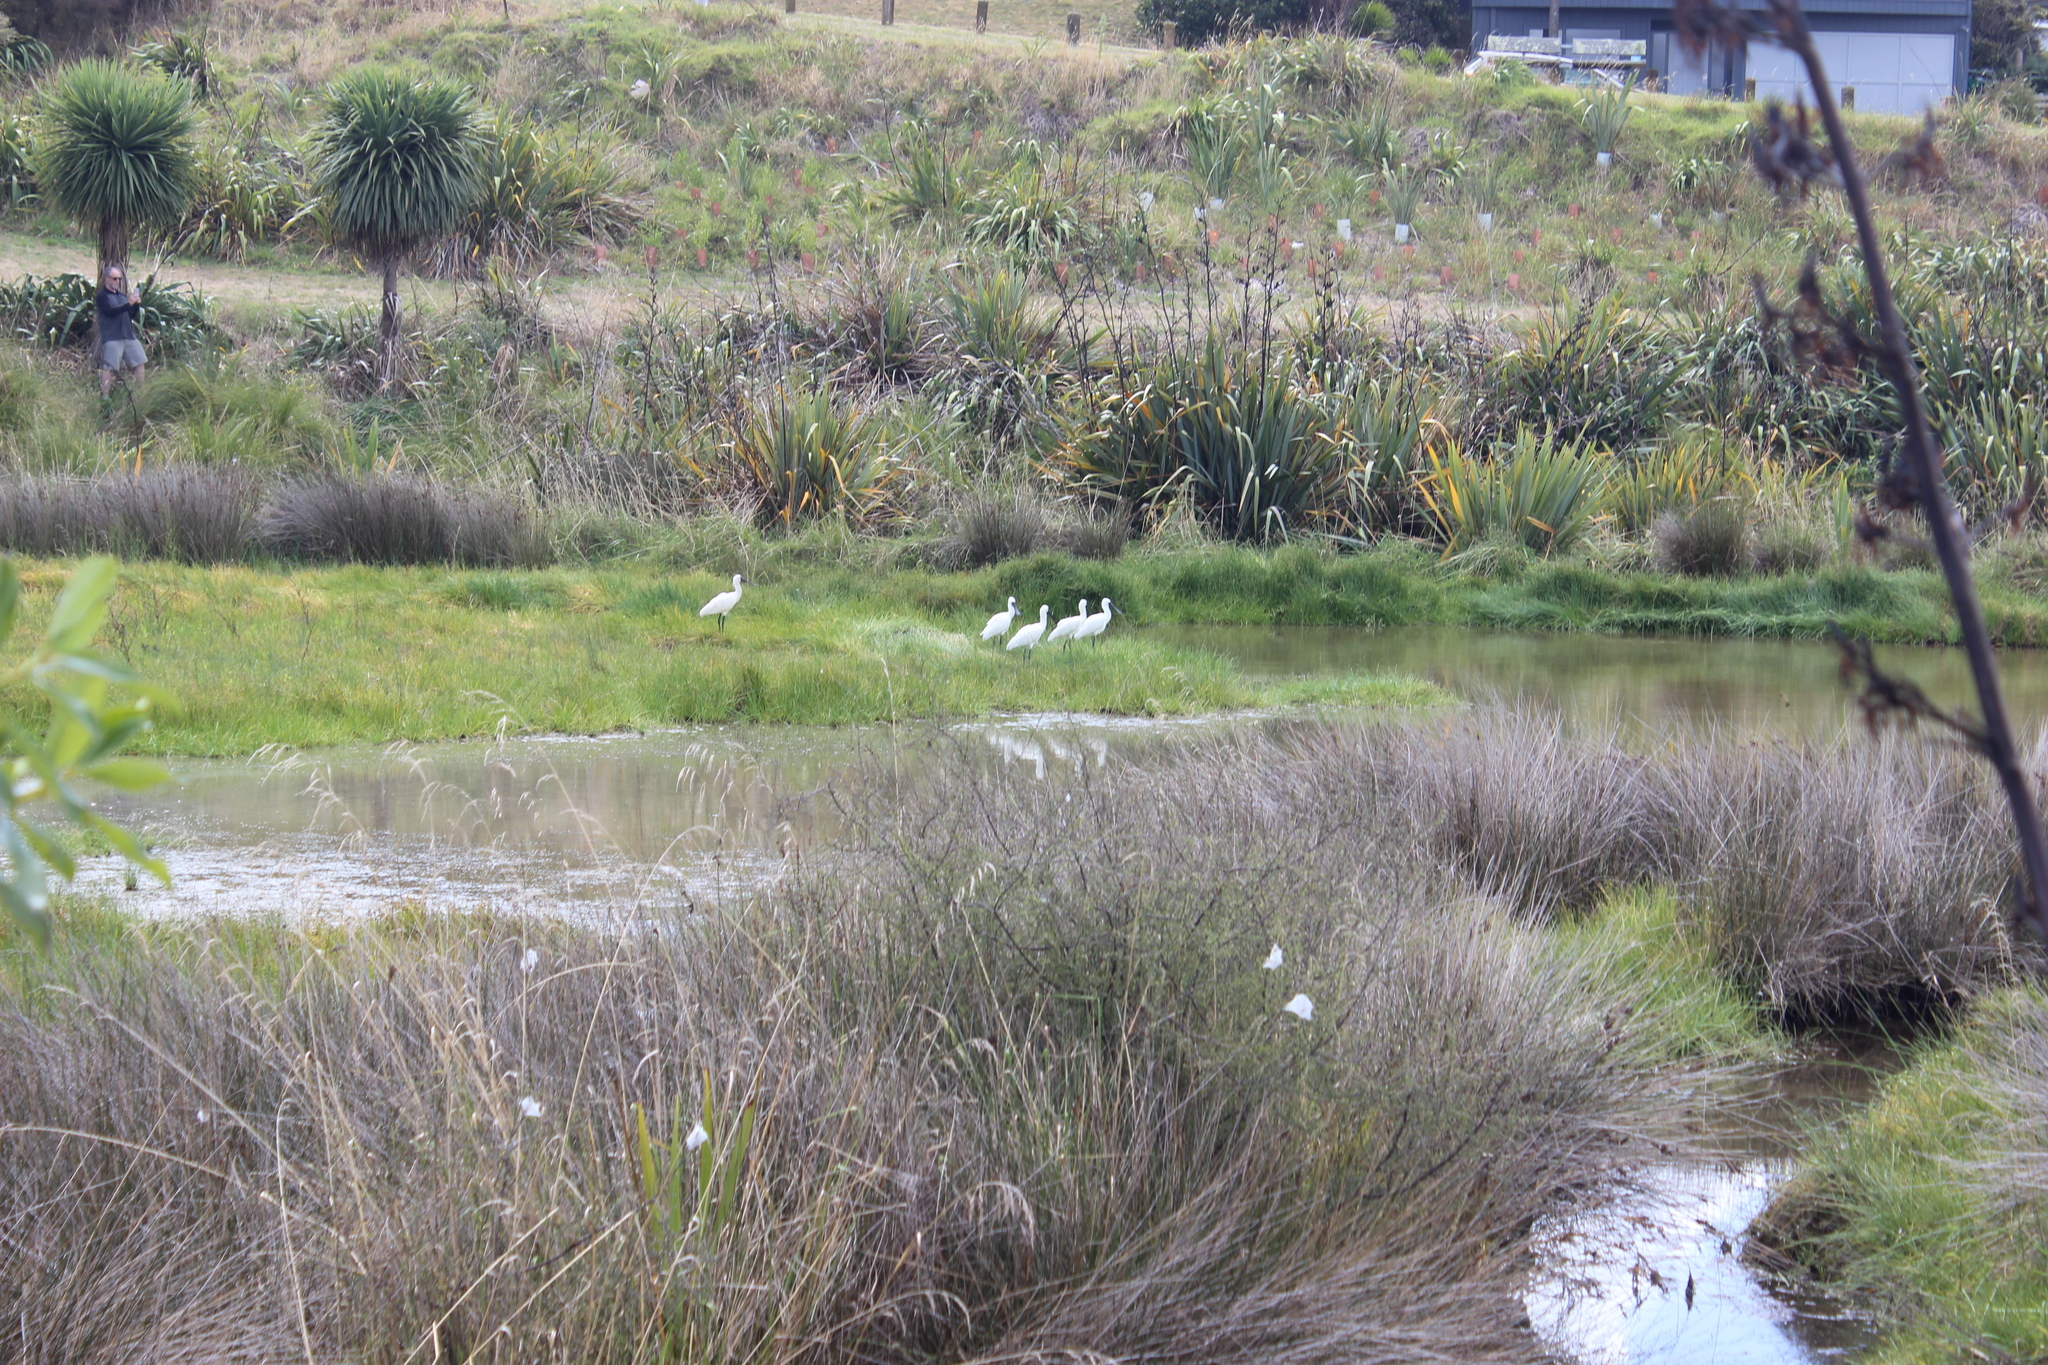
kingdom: Animalia
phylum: Chordata
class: Aves
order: Pelecaniformes
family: Threskiornithidae
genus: Platalea
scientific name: Platalea regia
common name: Royal spoonbill
